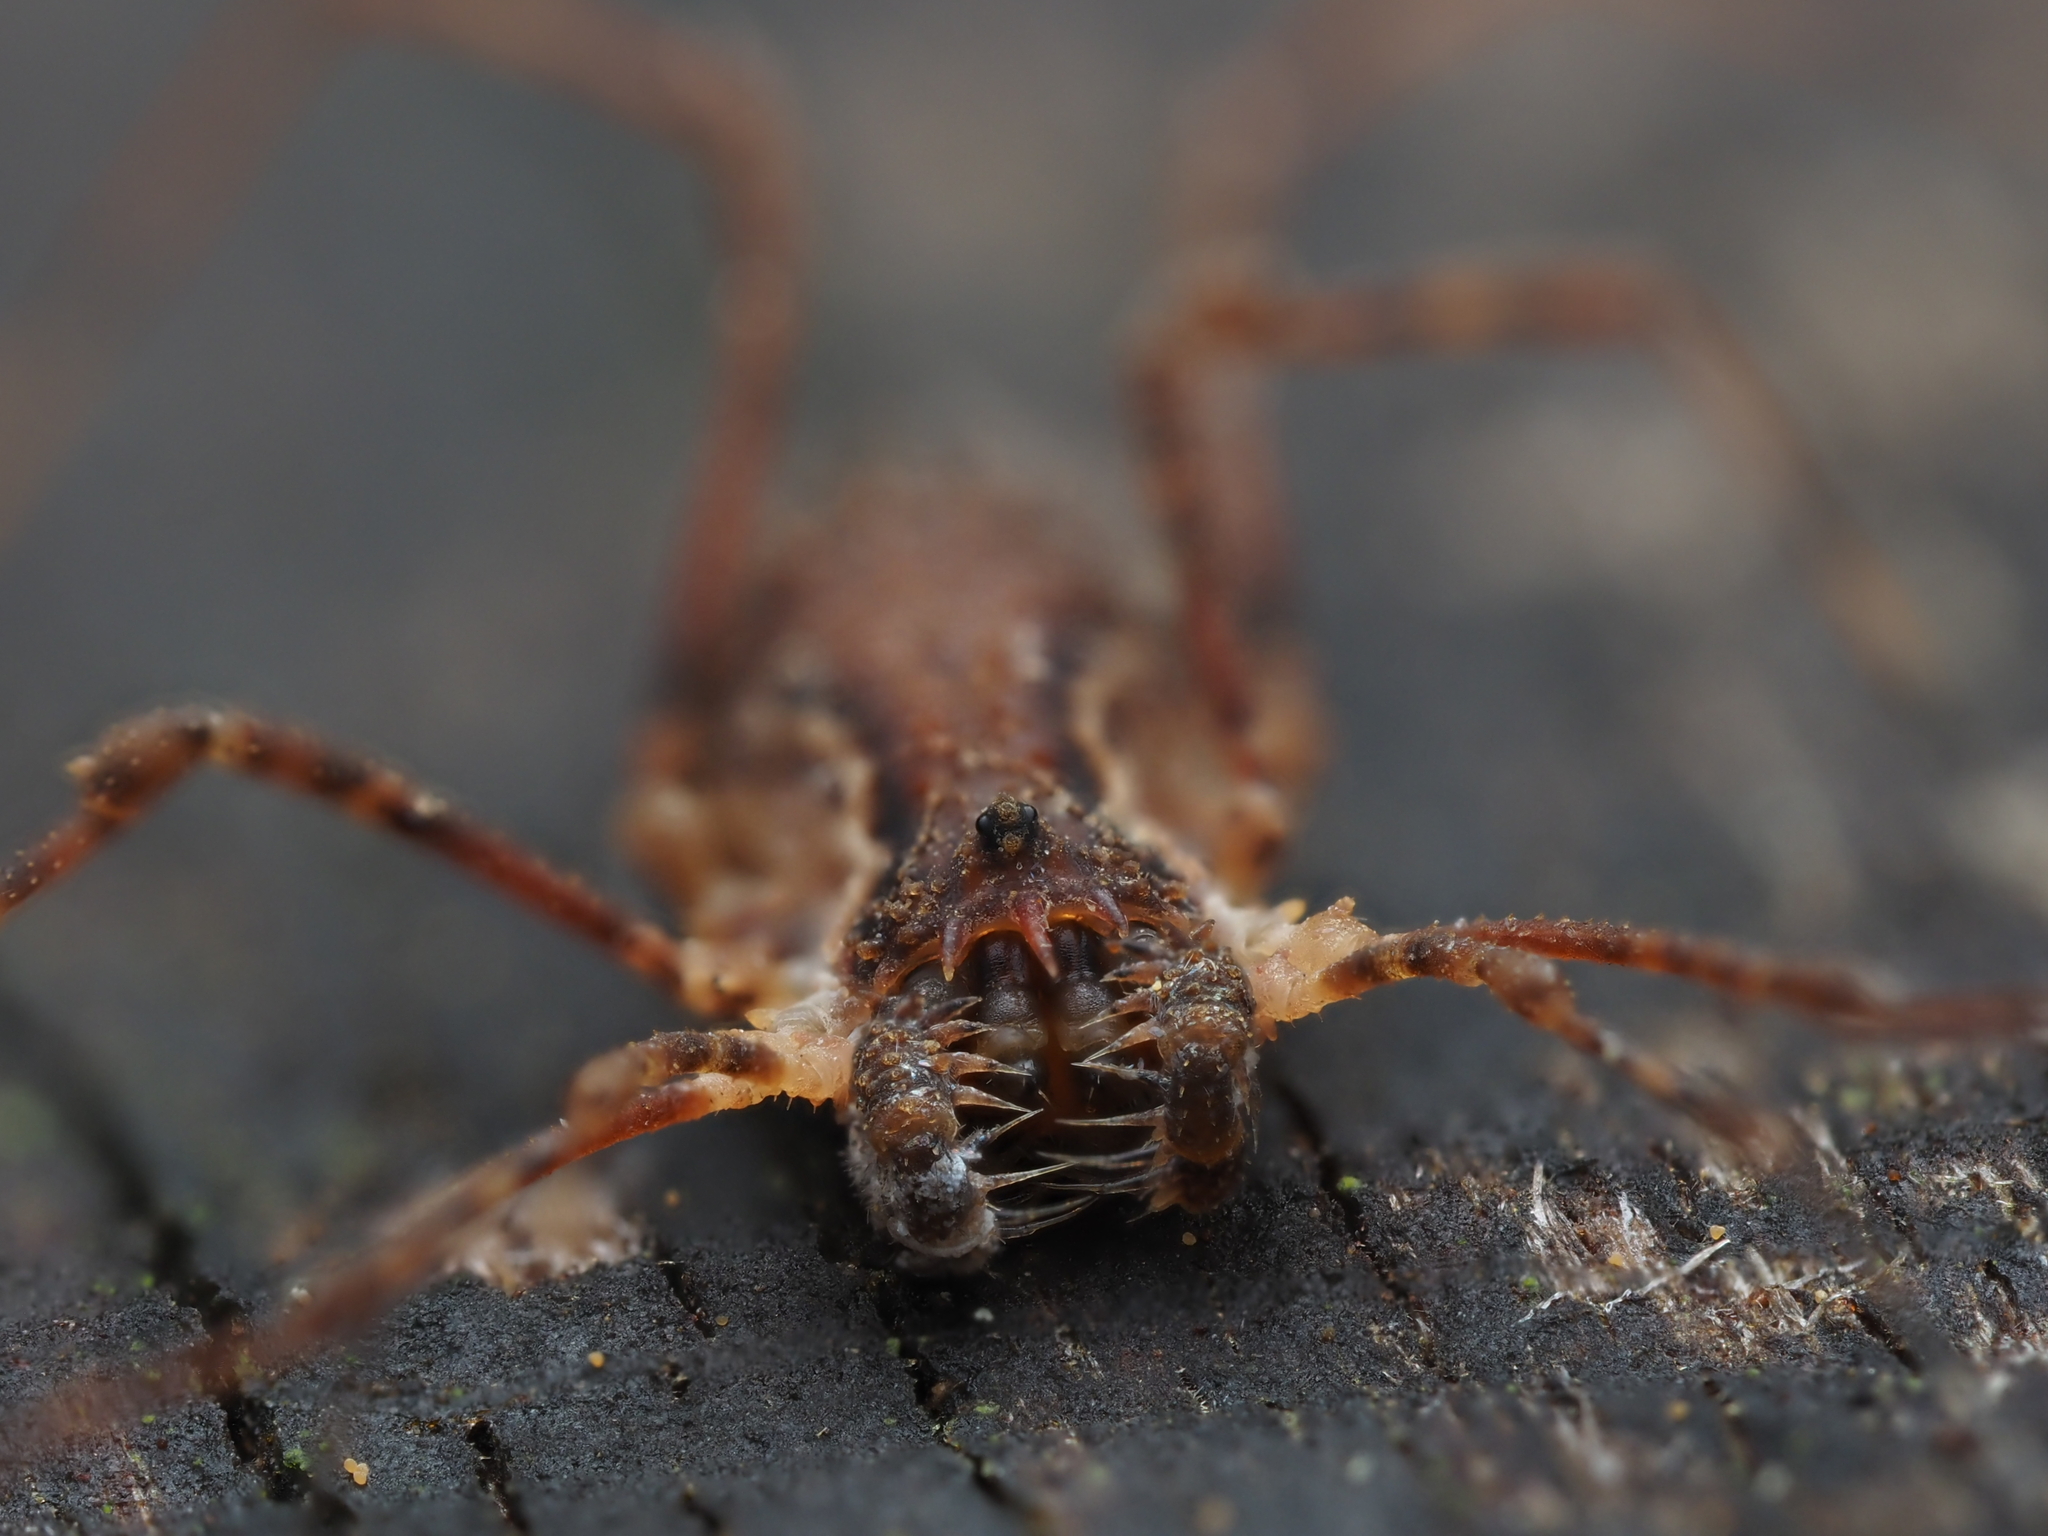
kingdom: Animalia
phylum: Arthropoda
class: Arachnida
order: Opiliones
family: Triaenonychidae
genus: Algidia
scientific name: Algidia chiltoni
